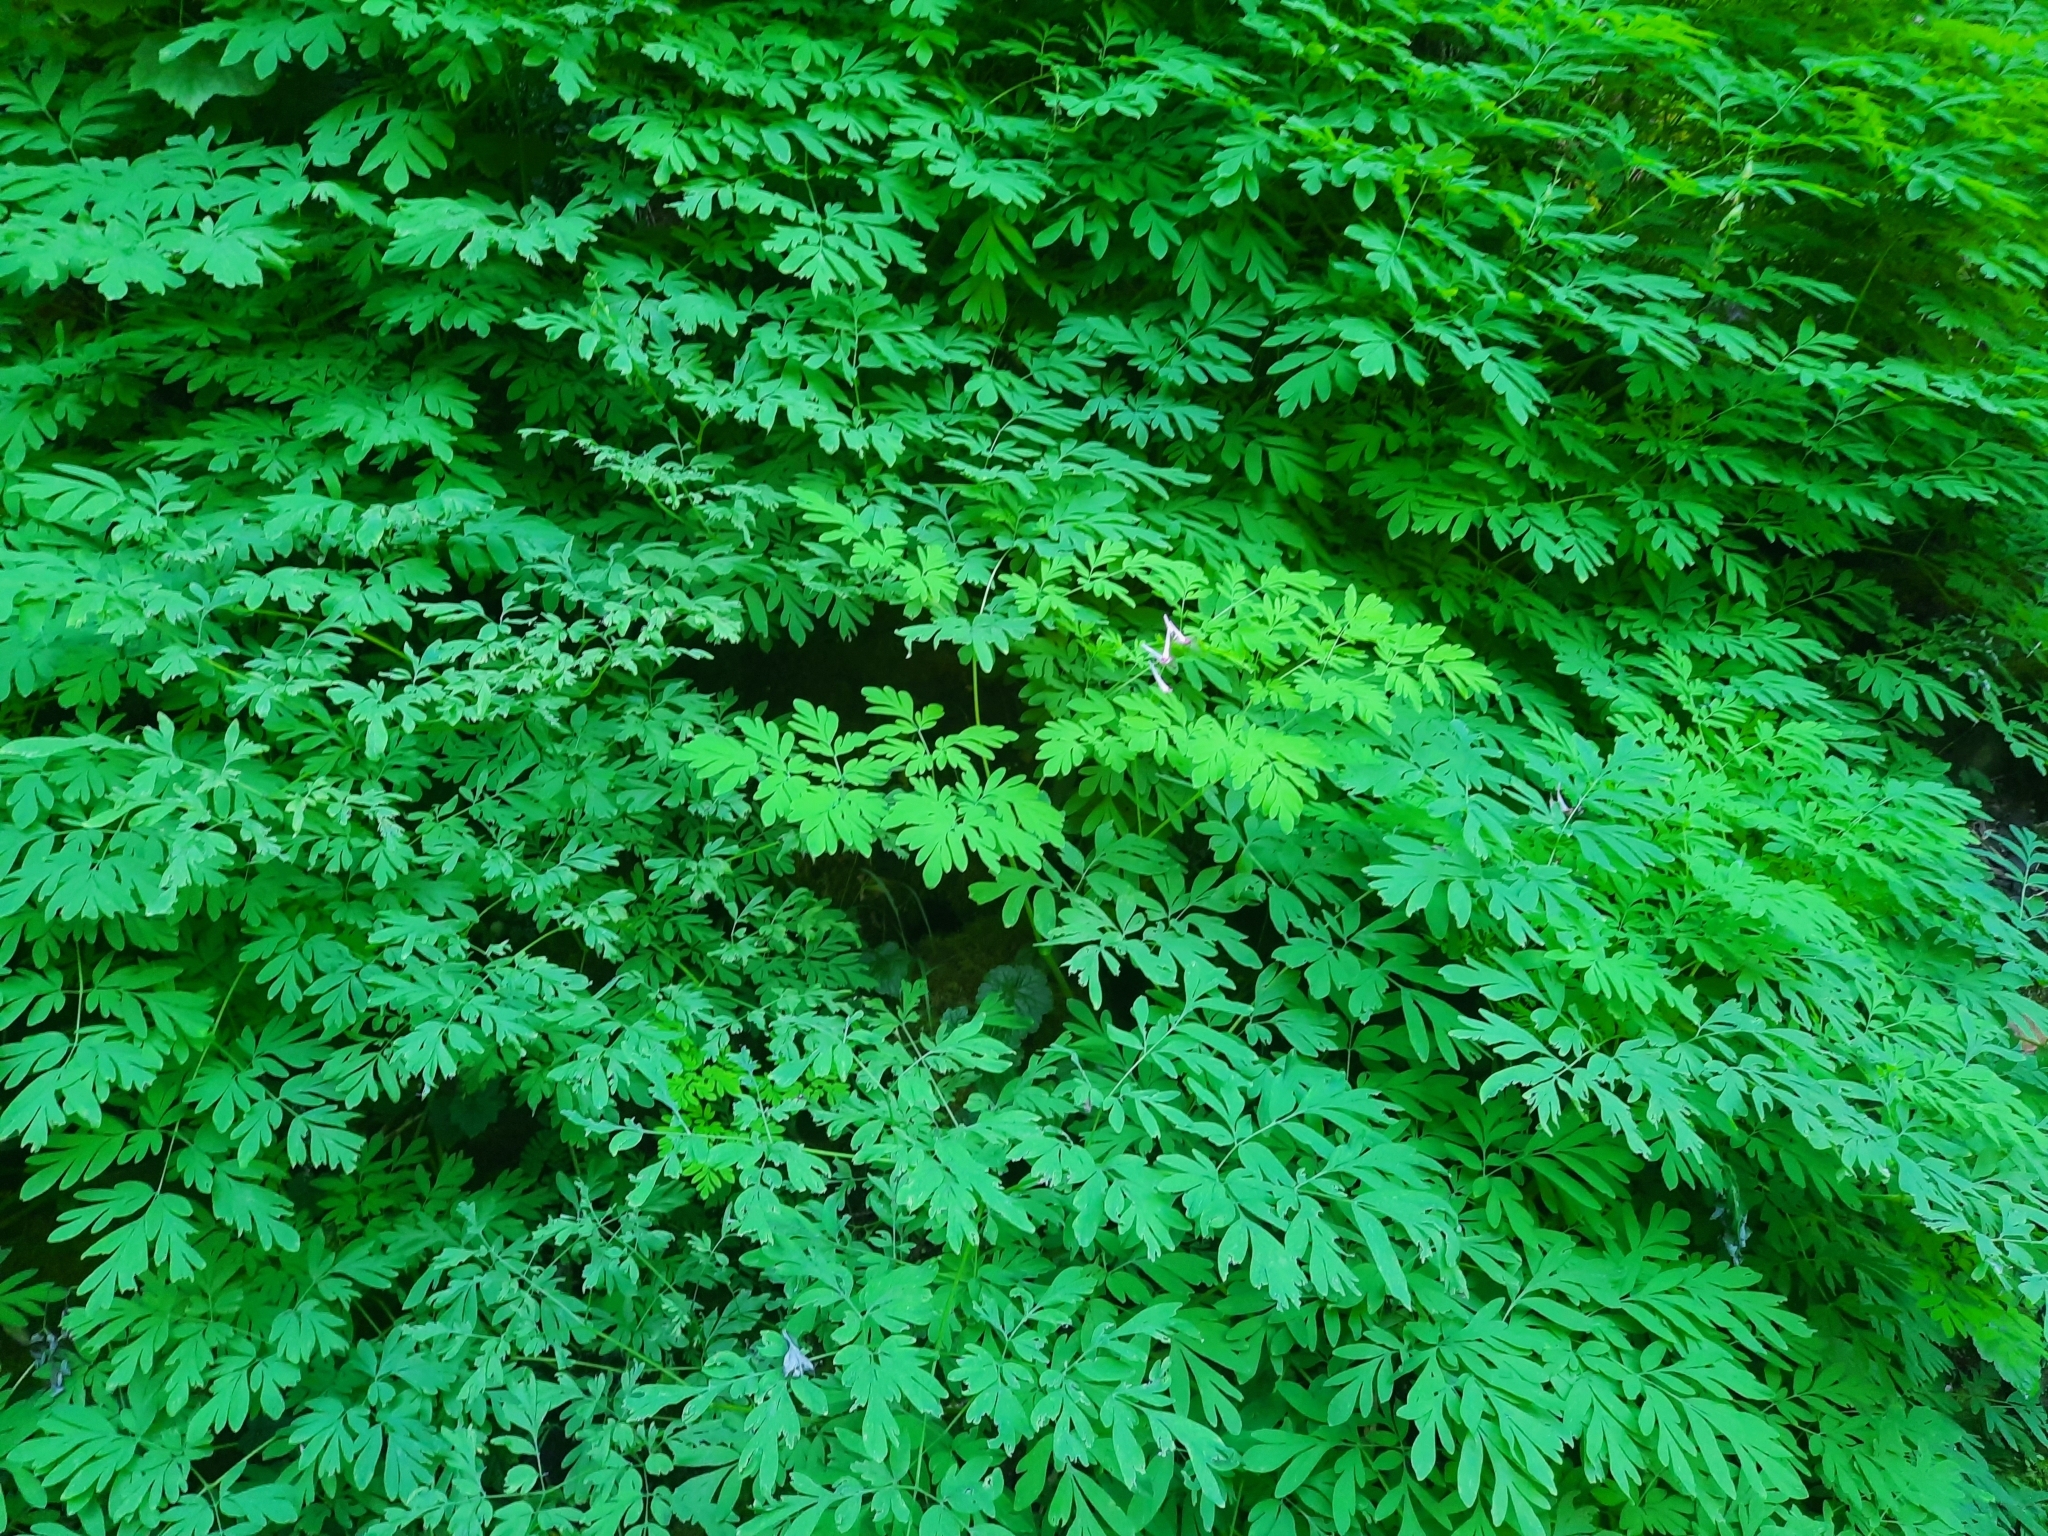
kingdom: Plantae
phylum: Tracheophyta
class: Magnoliopsida
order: Ranunculales
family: Papaveraceae
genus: Corydalis
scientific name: Corydalis scouleri
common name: Scouler's corydalis
